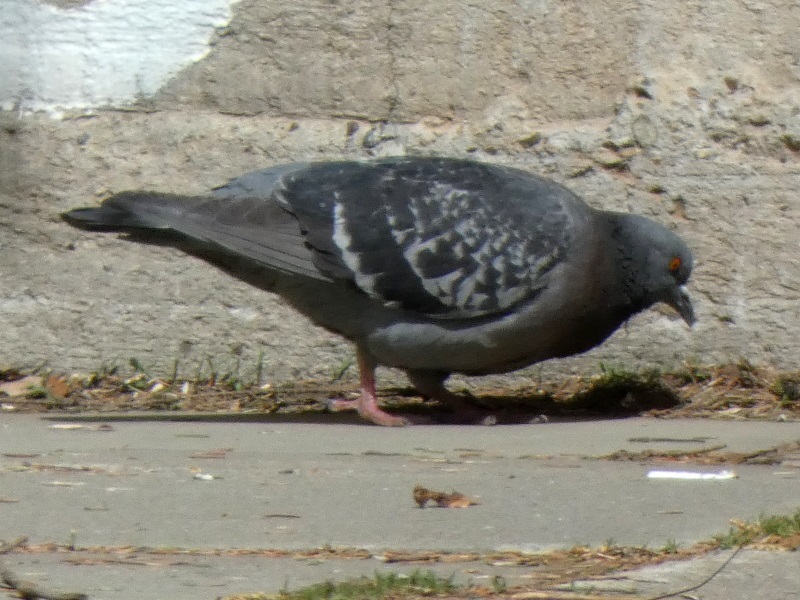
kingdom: Animalia
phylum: Chordata
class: Aves
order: Columbiformes
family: Columbidae
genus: Columba
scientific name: Columba livia
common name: Rock pigeon
